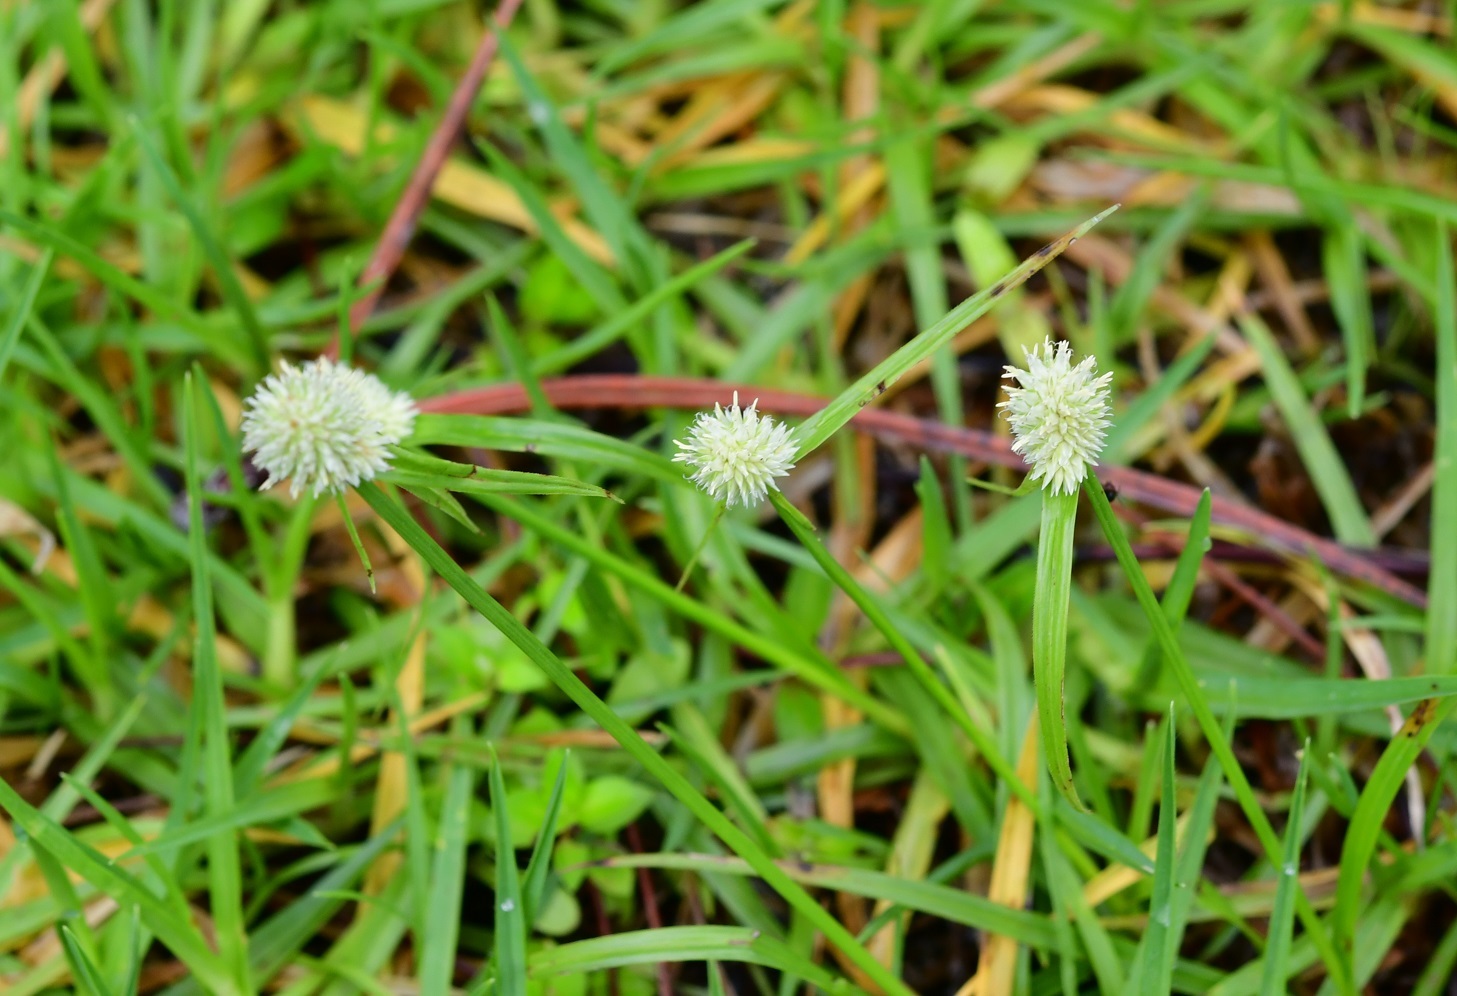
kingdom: Plantae
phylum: Tracheophyta
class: Liliopsida
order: Poales
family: Cyperaceae
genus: Cyperus
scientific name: Cyperus sesquiflorus
